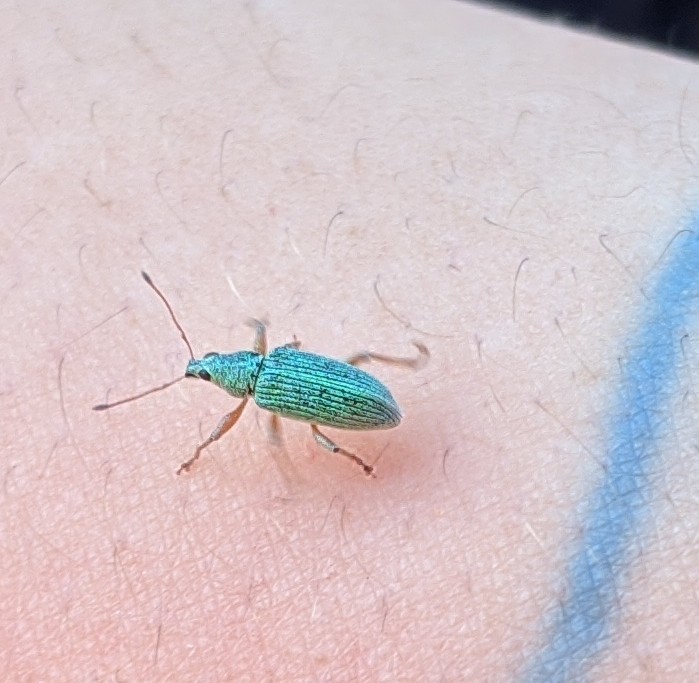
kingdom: Animalia
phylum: Arthropoda
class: Insecta
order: Coleoptera
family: Curculionidae
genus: Polydrusus
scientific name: Polydrusus formosus
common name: Weevil
